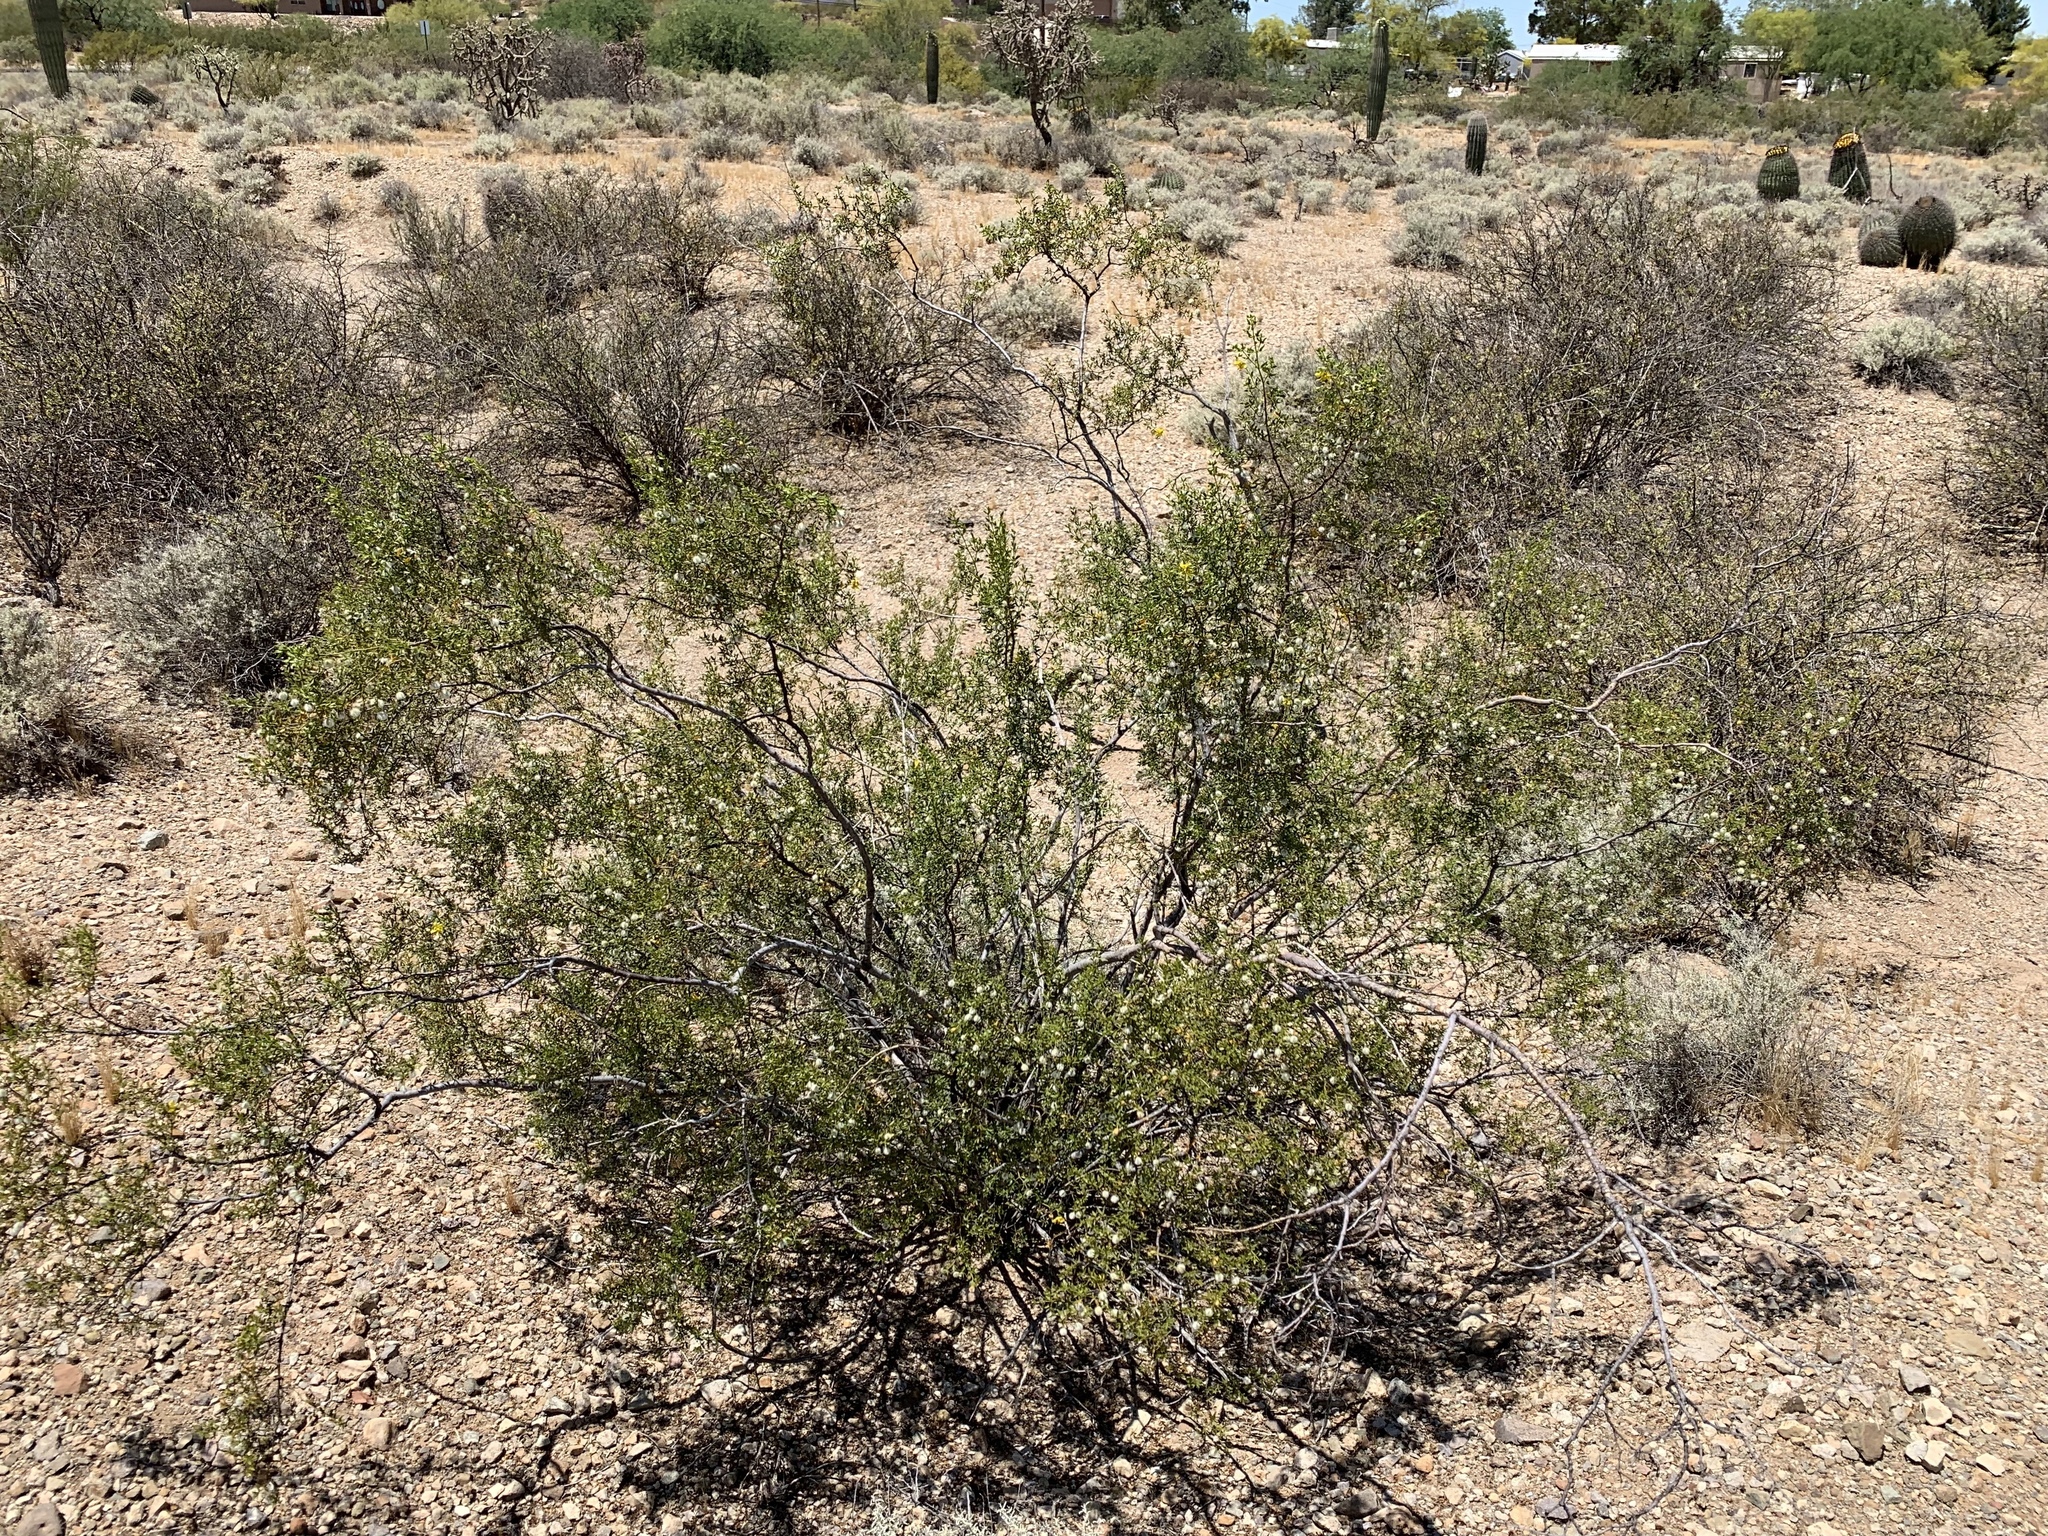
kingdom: Plantae
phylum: Tracheophyta
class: Magnoliopsida
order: Zygophyllales
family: Zygophyllaceae
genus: Larrea
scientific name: Larrea tridentata
